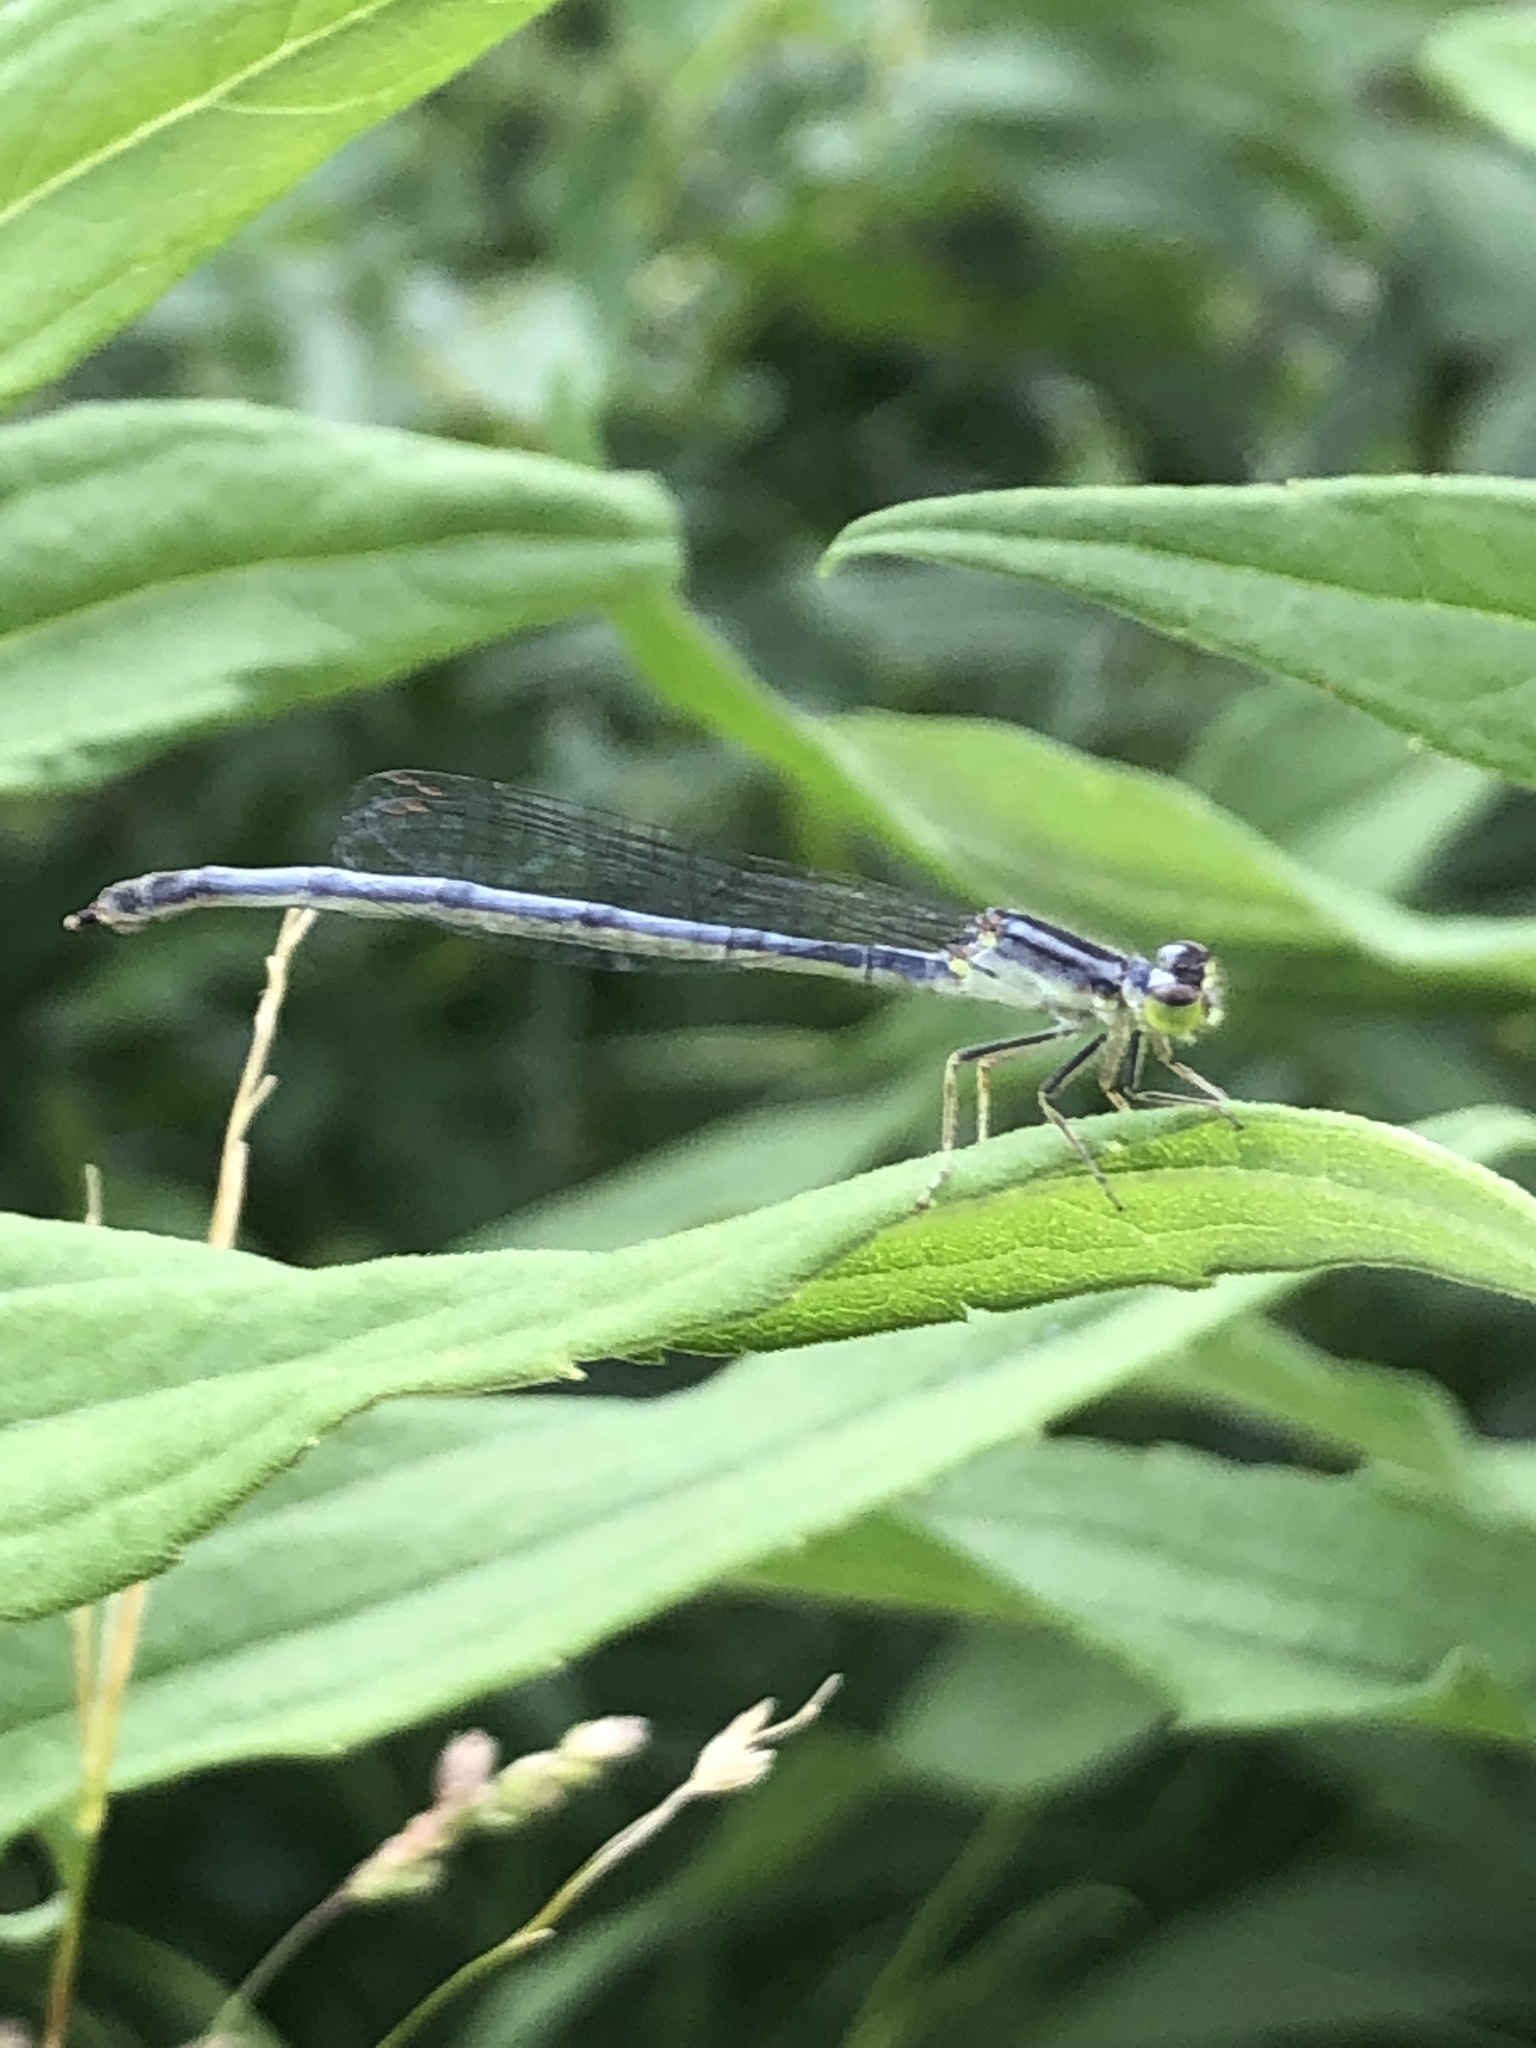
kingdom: Animalia
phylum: Arthropoda
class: Insecta
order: Odonata
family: Coenagrionidae
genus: Ischnura
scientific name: Ischnura verticalis
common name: Eastern forktail
